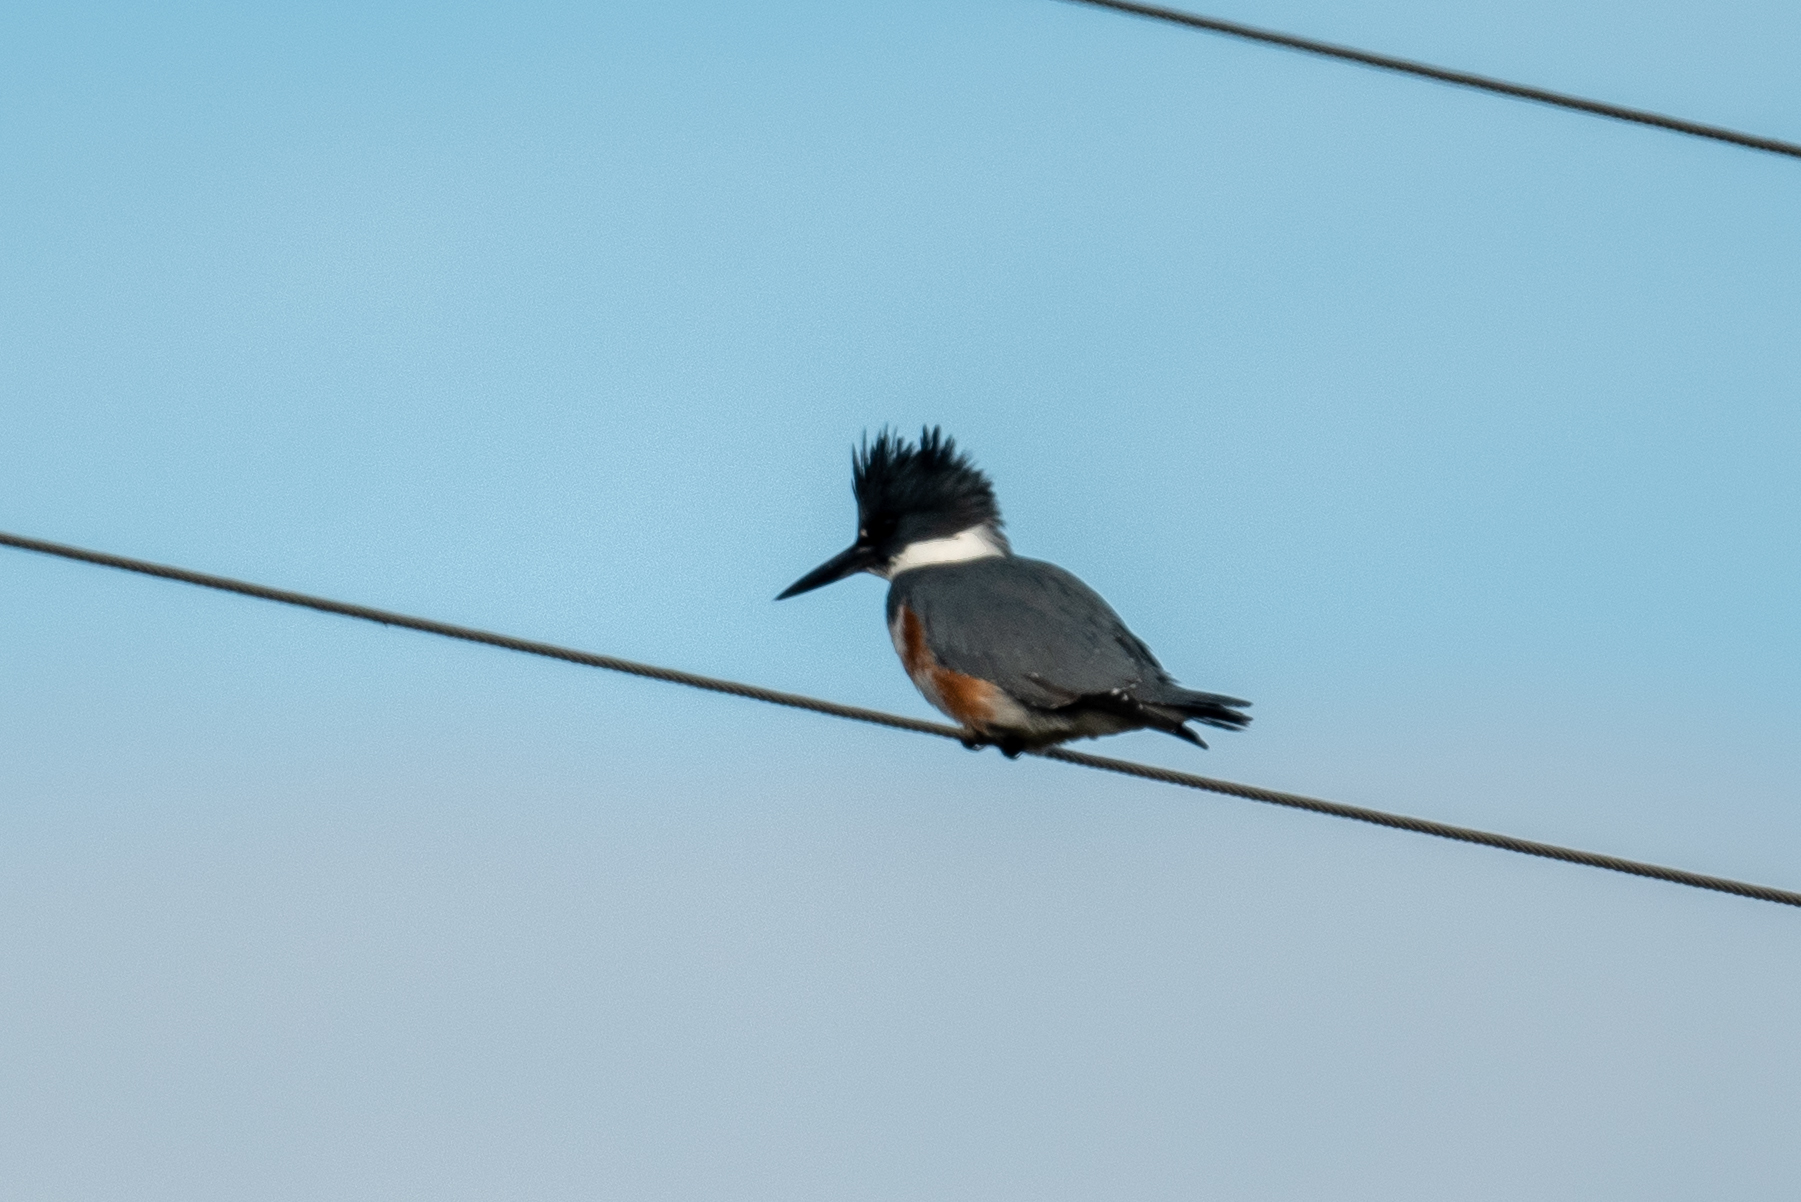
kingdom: Animalia
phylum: Chordata
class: Aves
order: Coraciiformes
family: Alcedinidae
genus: Megaceryle
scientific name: Megaceryle alcyon
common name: Belted kingfisher
